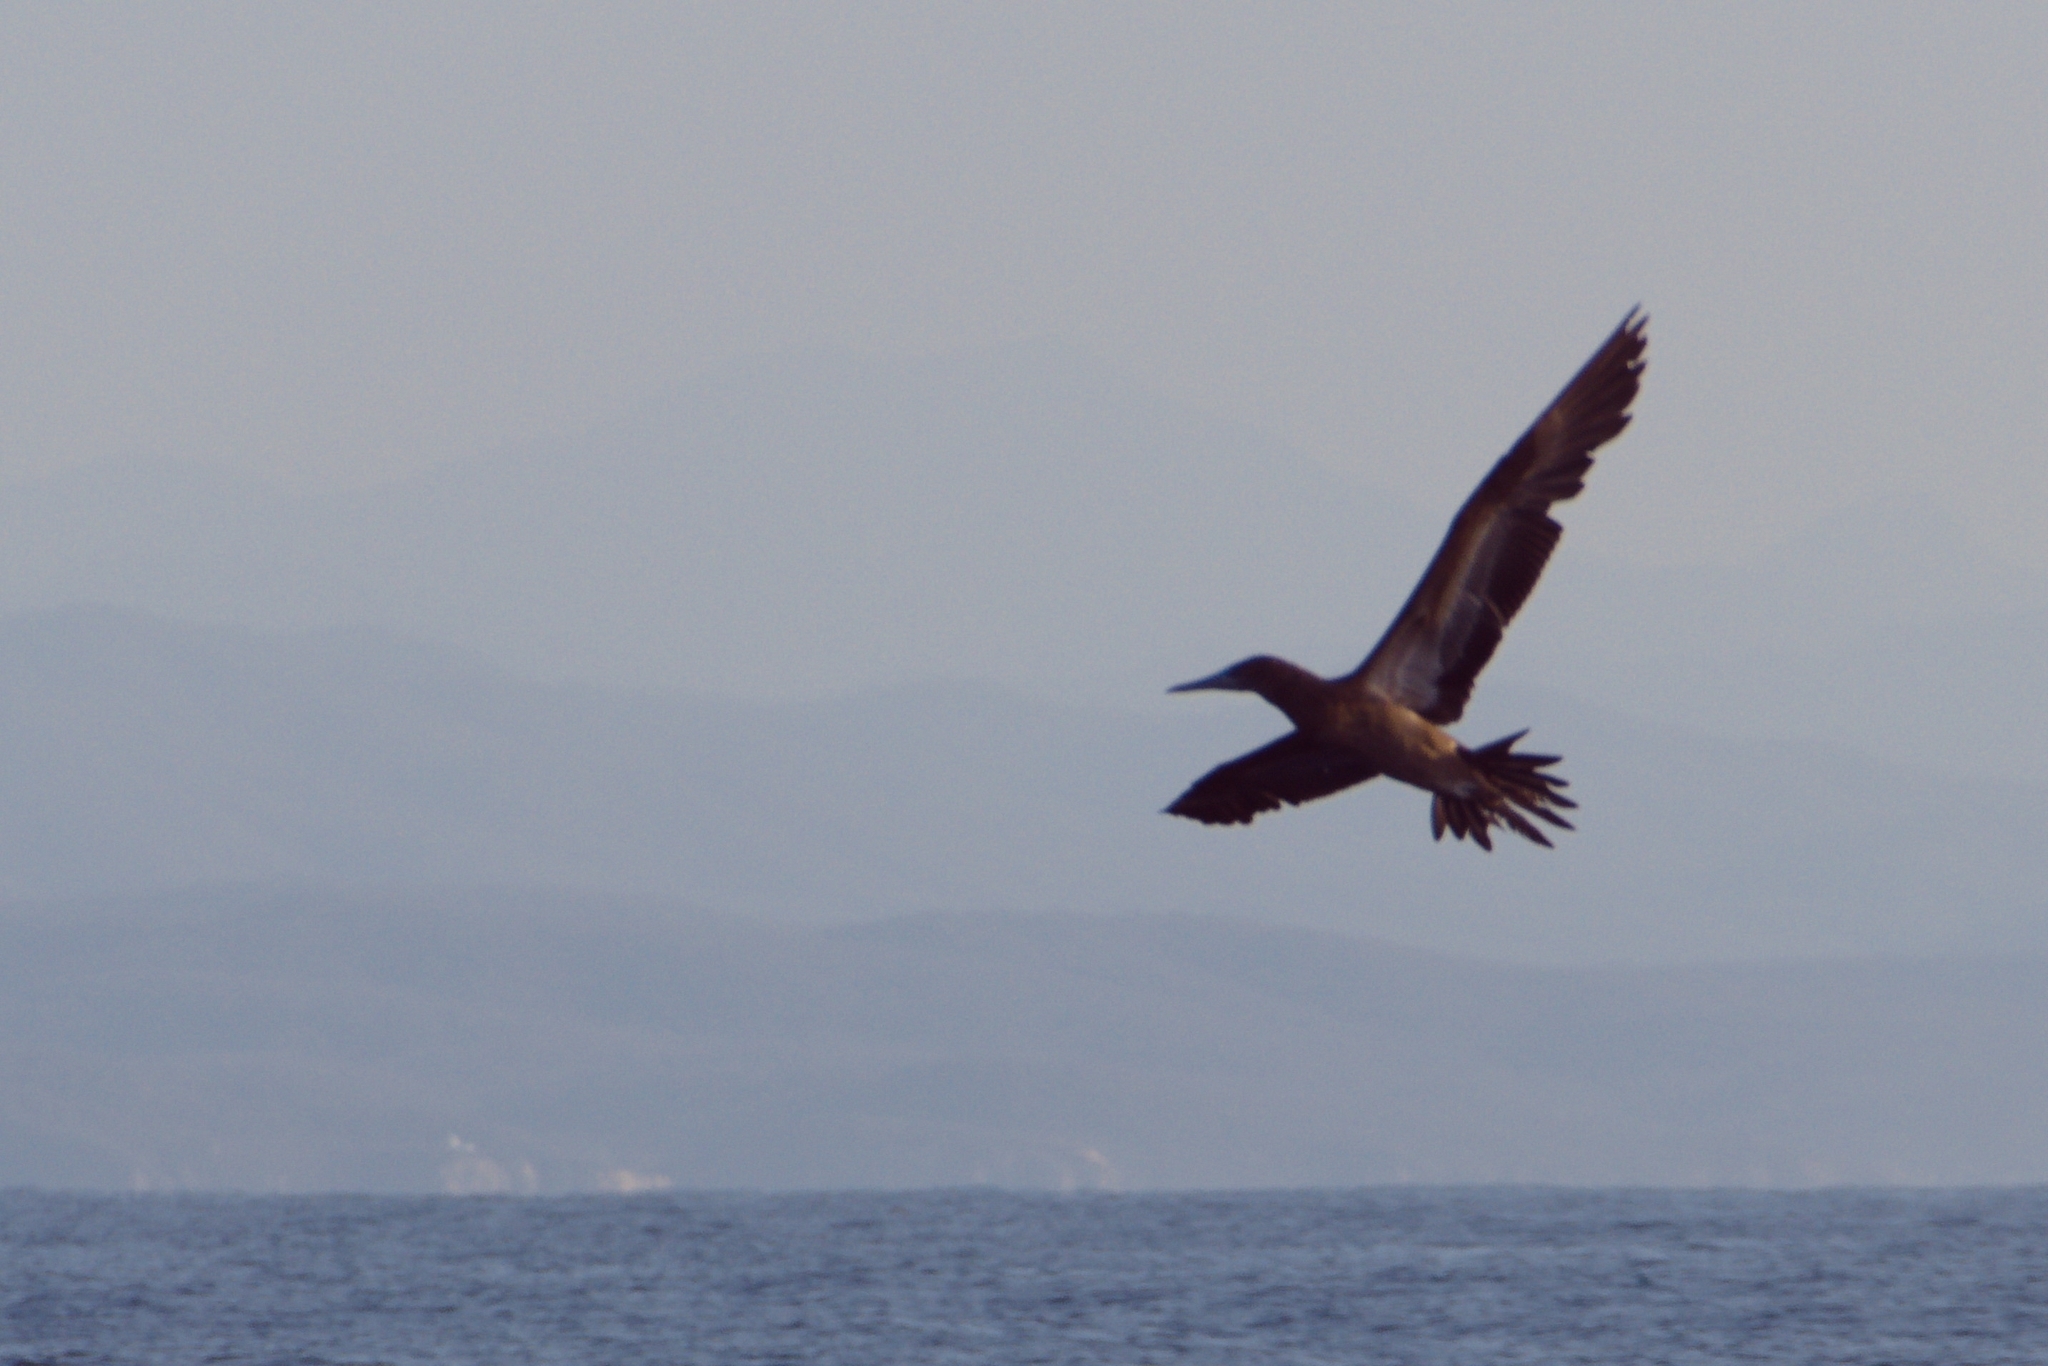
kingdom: Animalia
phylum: Chordata
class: Aves
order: Suliformes
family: Sulidae
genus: Sula
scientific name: Sula leucogaster
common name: Brown booby
